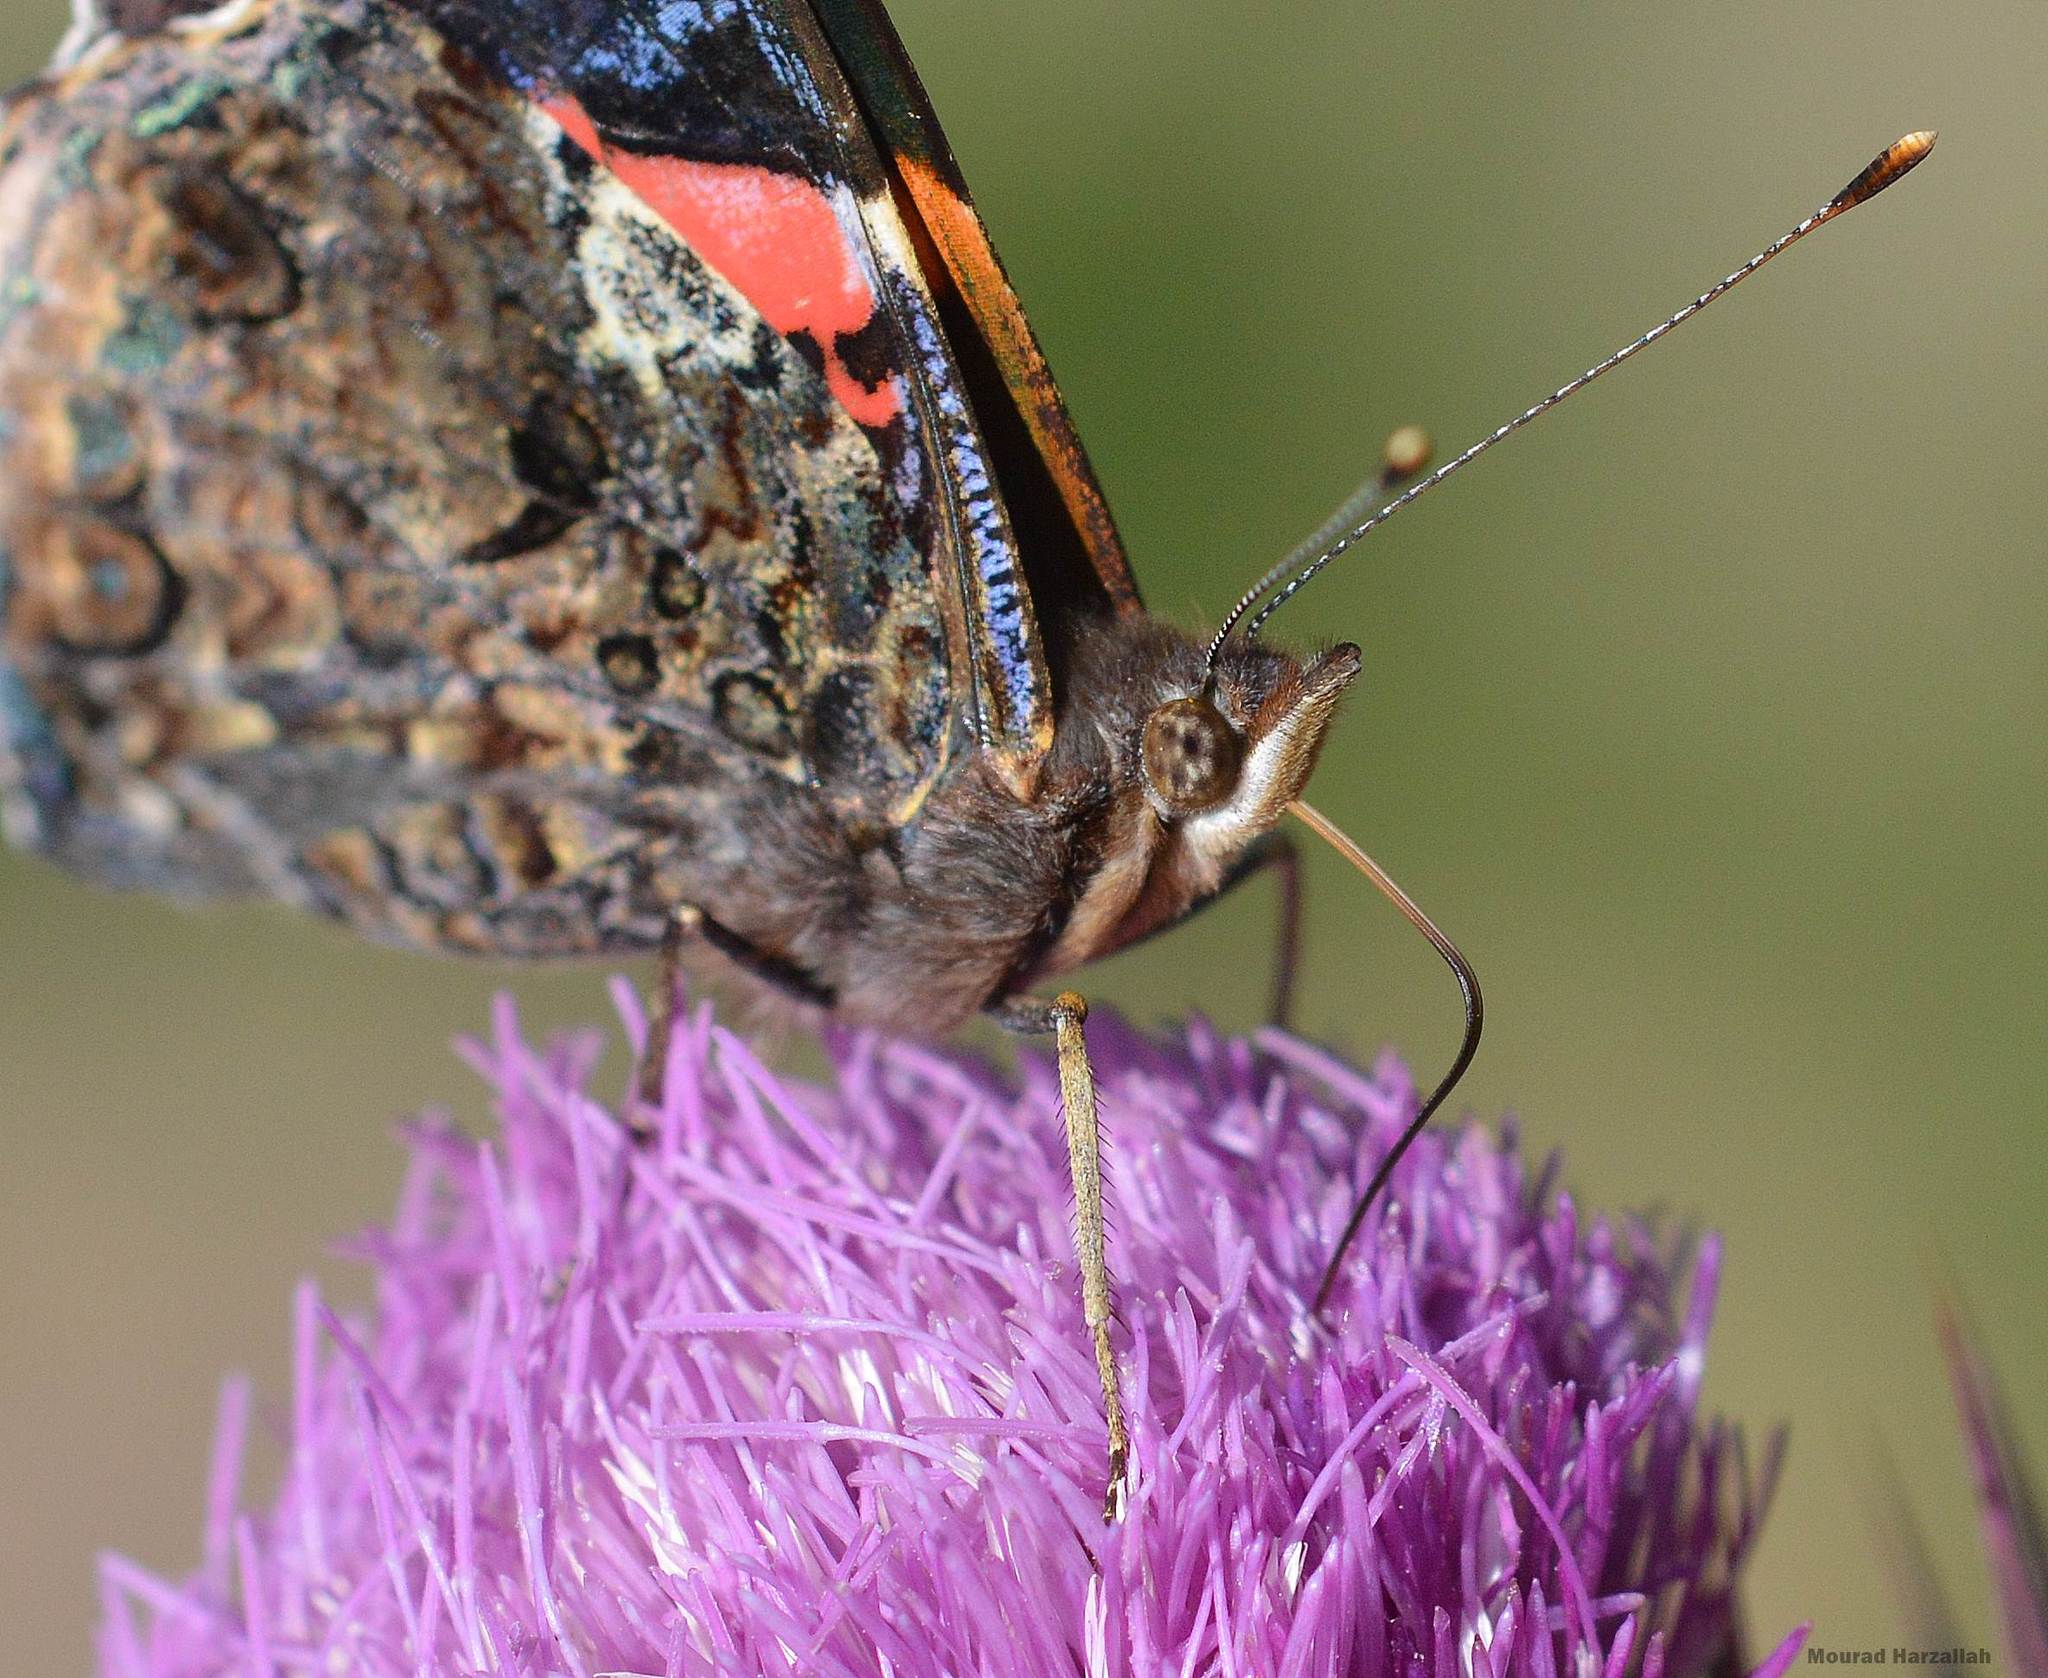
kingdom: Animalia
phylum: Arthropoda
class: Insecta
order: Lepidoptera
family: Nymphalidae
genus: Vanessa
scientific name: Vanessa atalanta
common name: Red admiral
